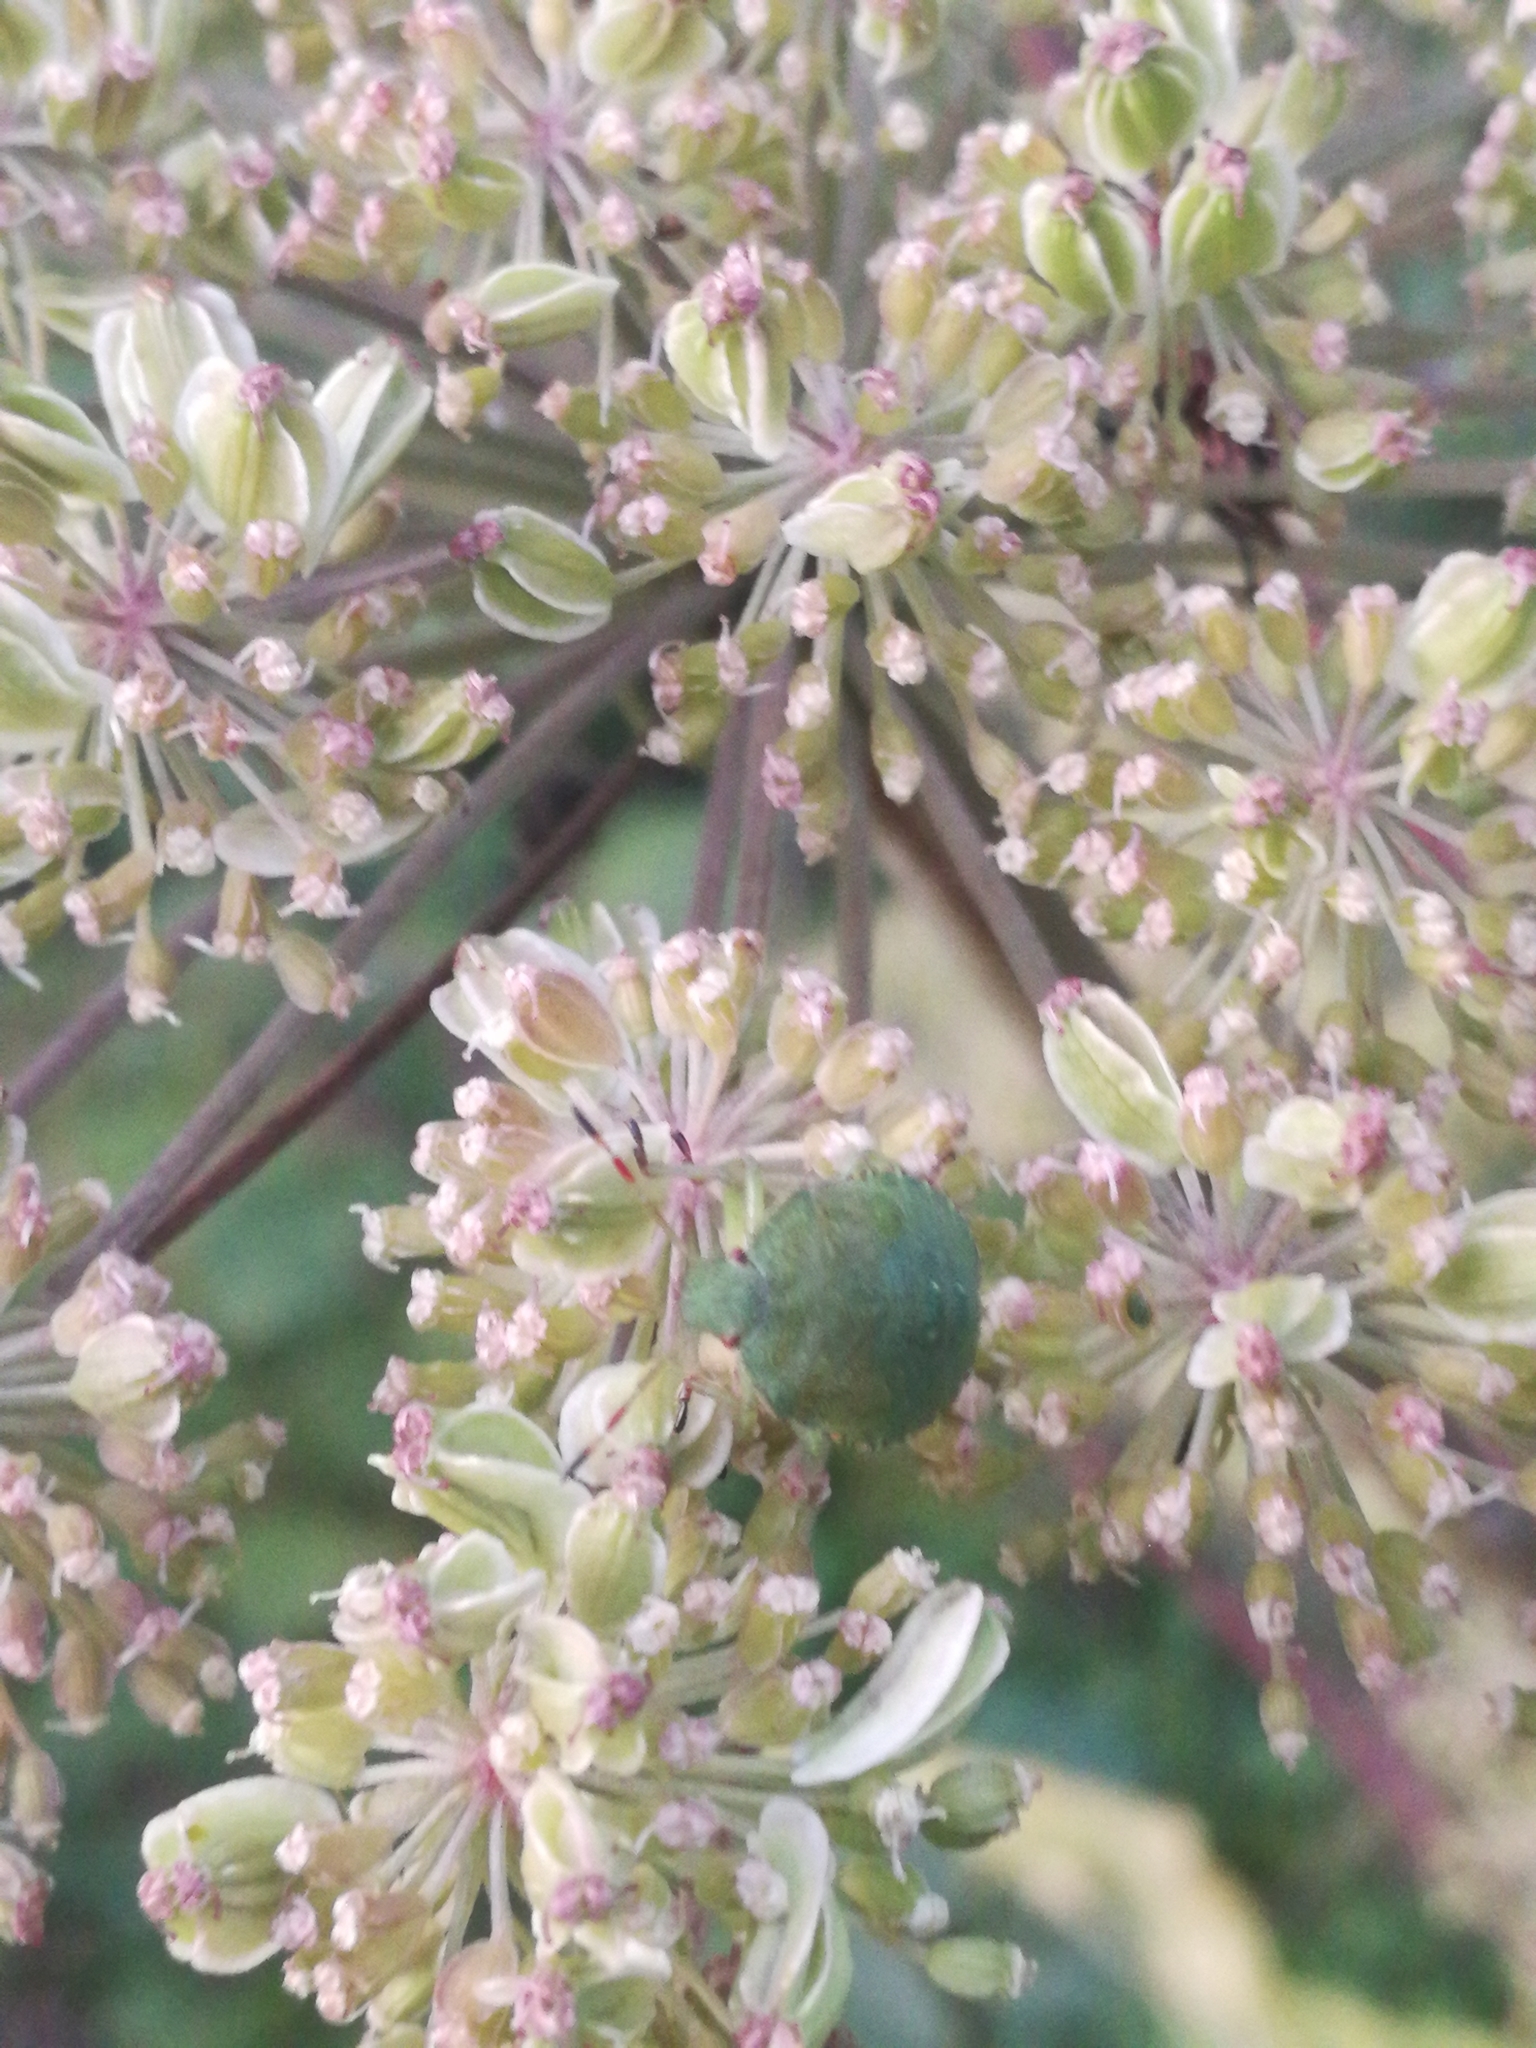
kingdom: Animalia
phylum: Arthropoda
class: Insecta
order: Hemiptera
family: Pentatomidae
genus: Palomena
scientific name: Palomena prasina
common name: Green shieldbug
